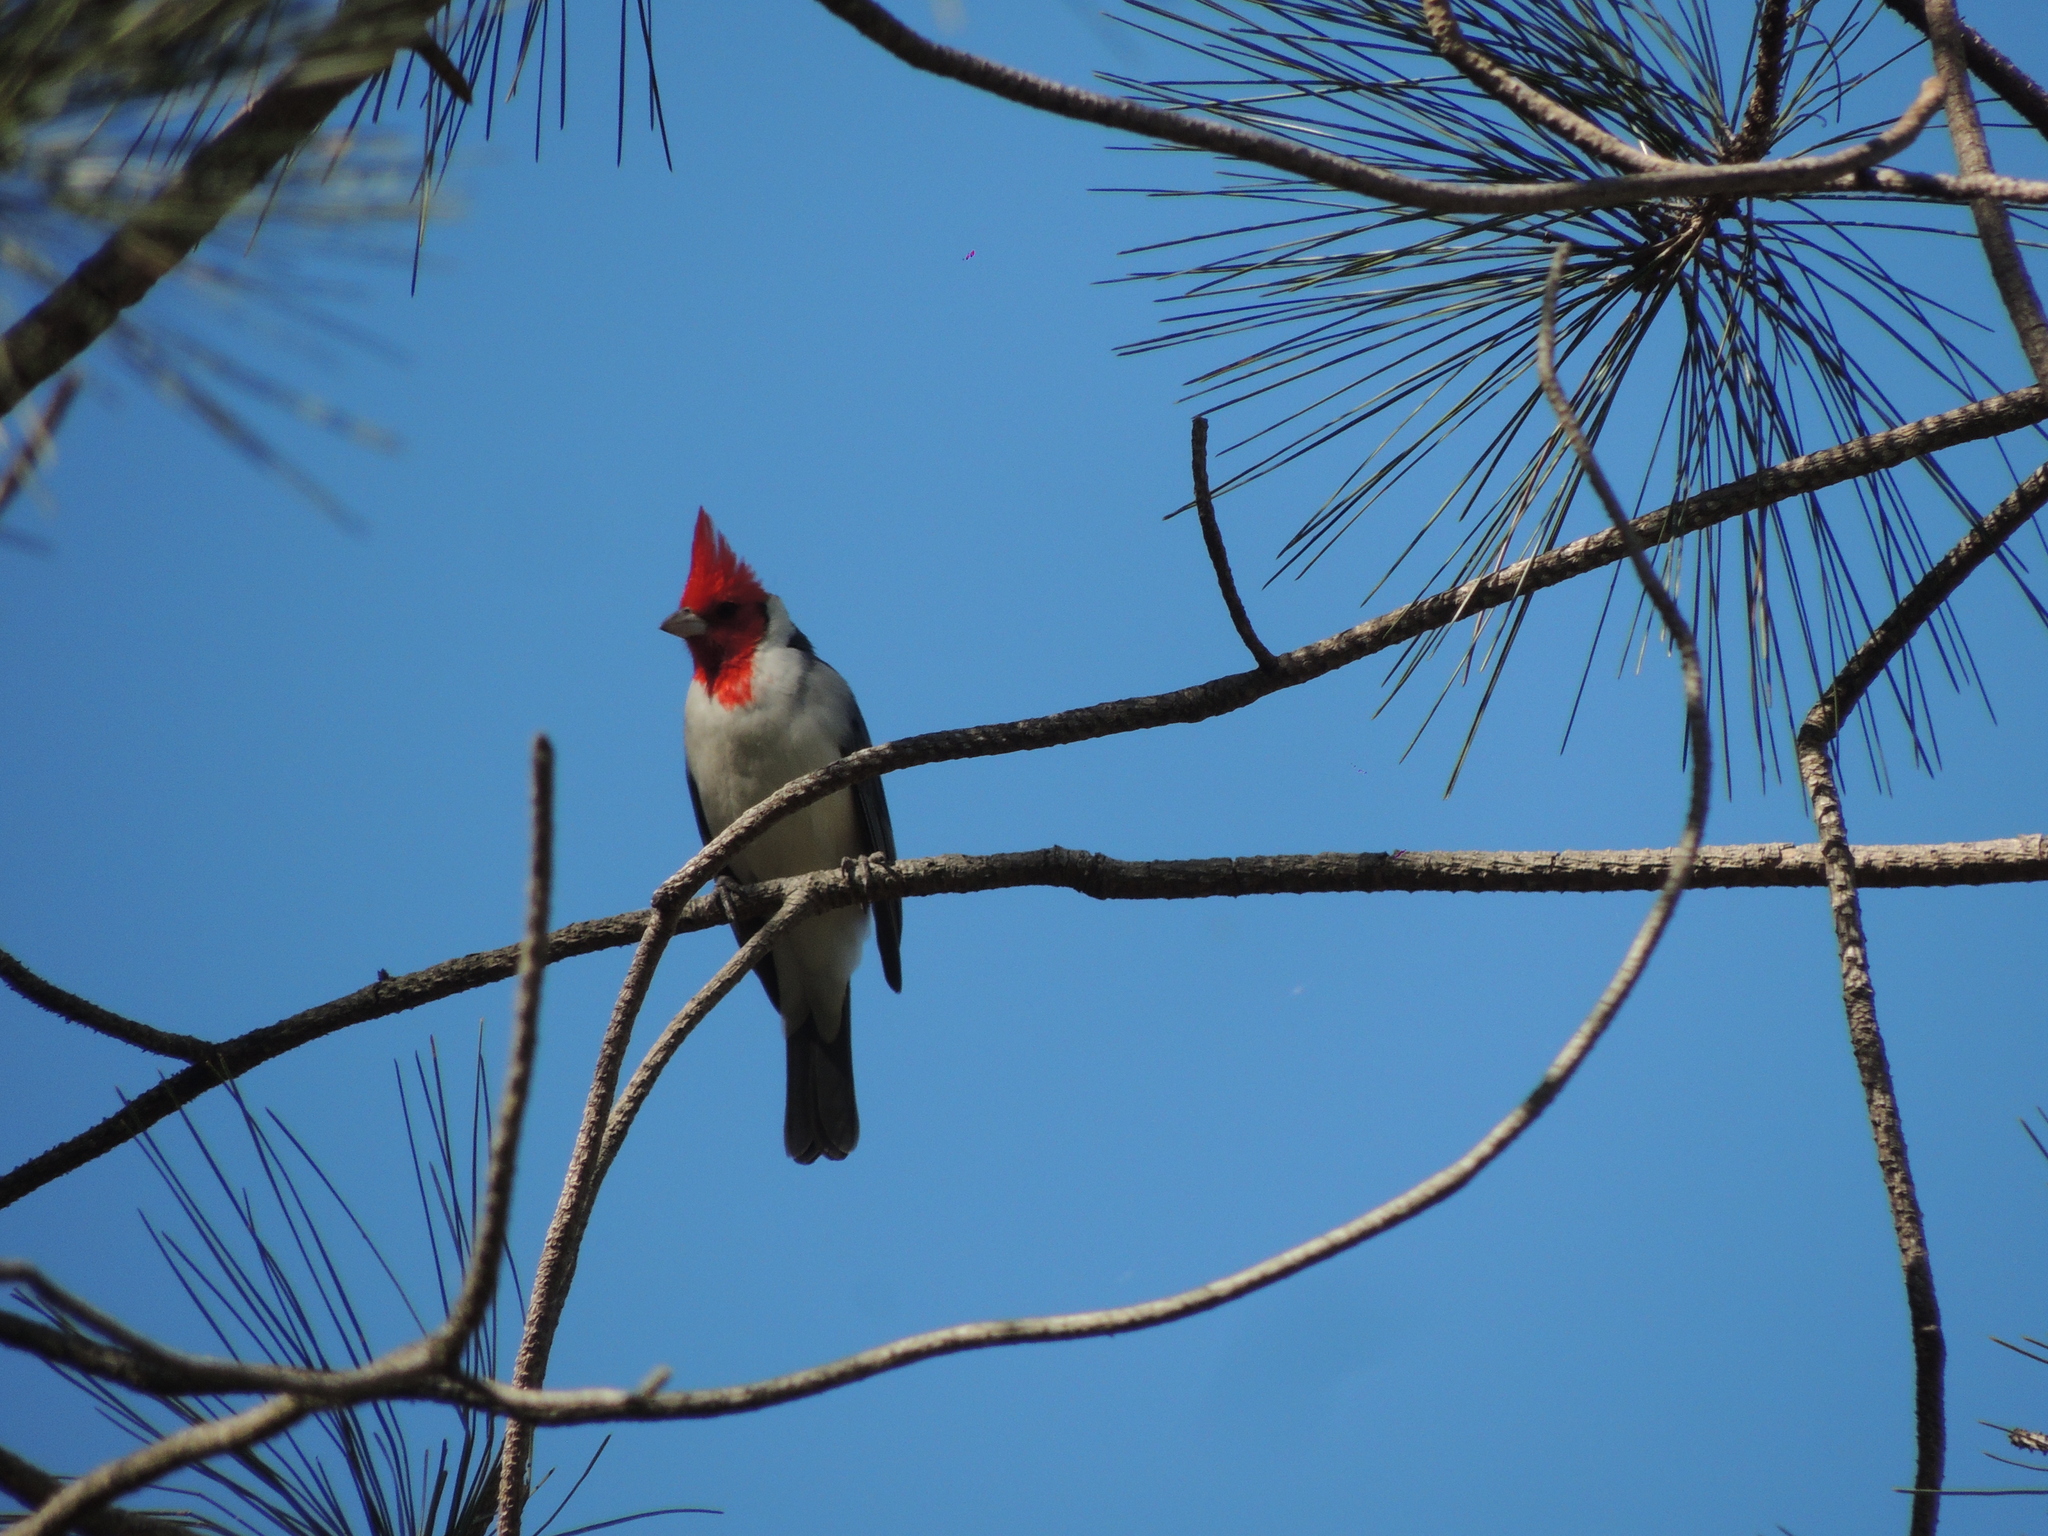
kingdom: Animalia
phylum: Chordata
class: Aves
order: Passeriformes
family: Thraupidae
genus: Paroaria
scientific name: Paroaria coronata
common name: Red-crested cardinal
